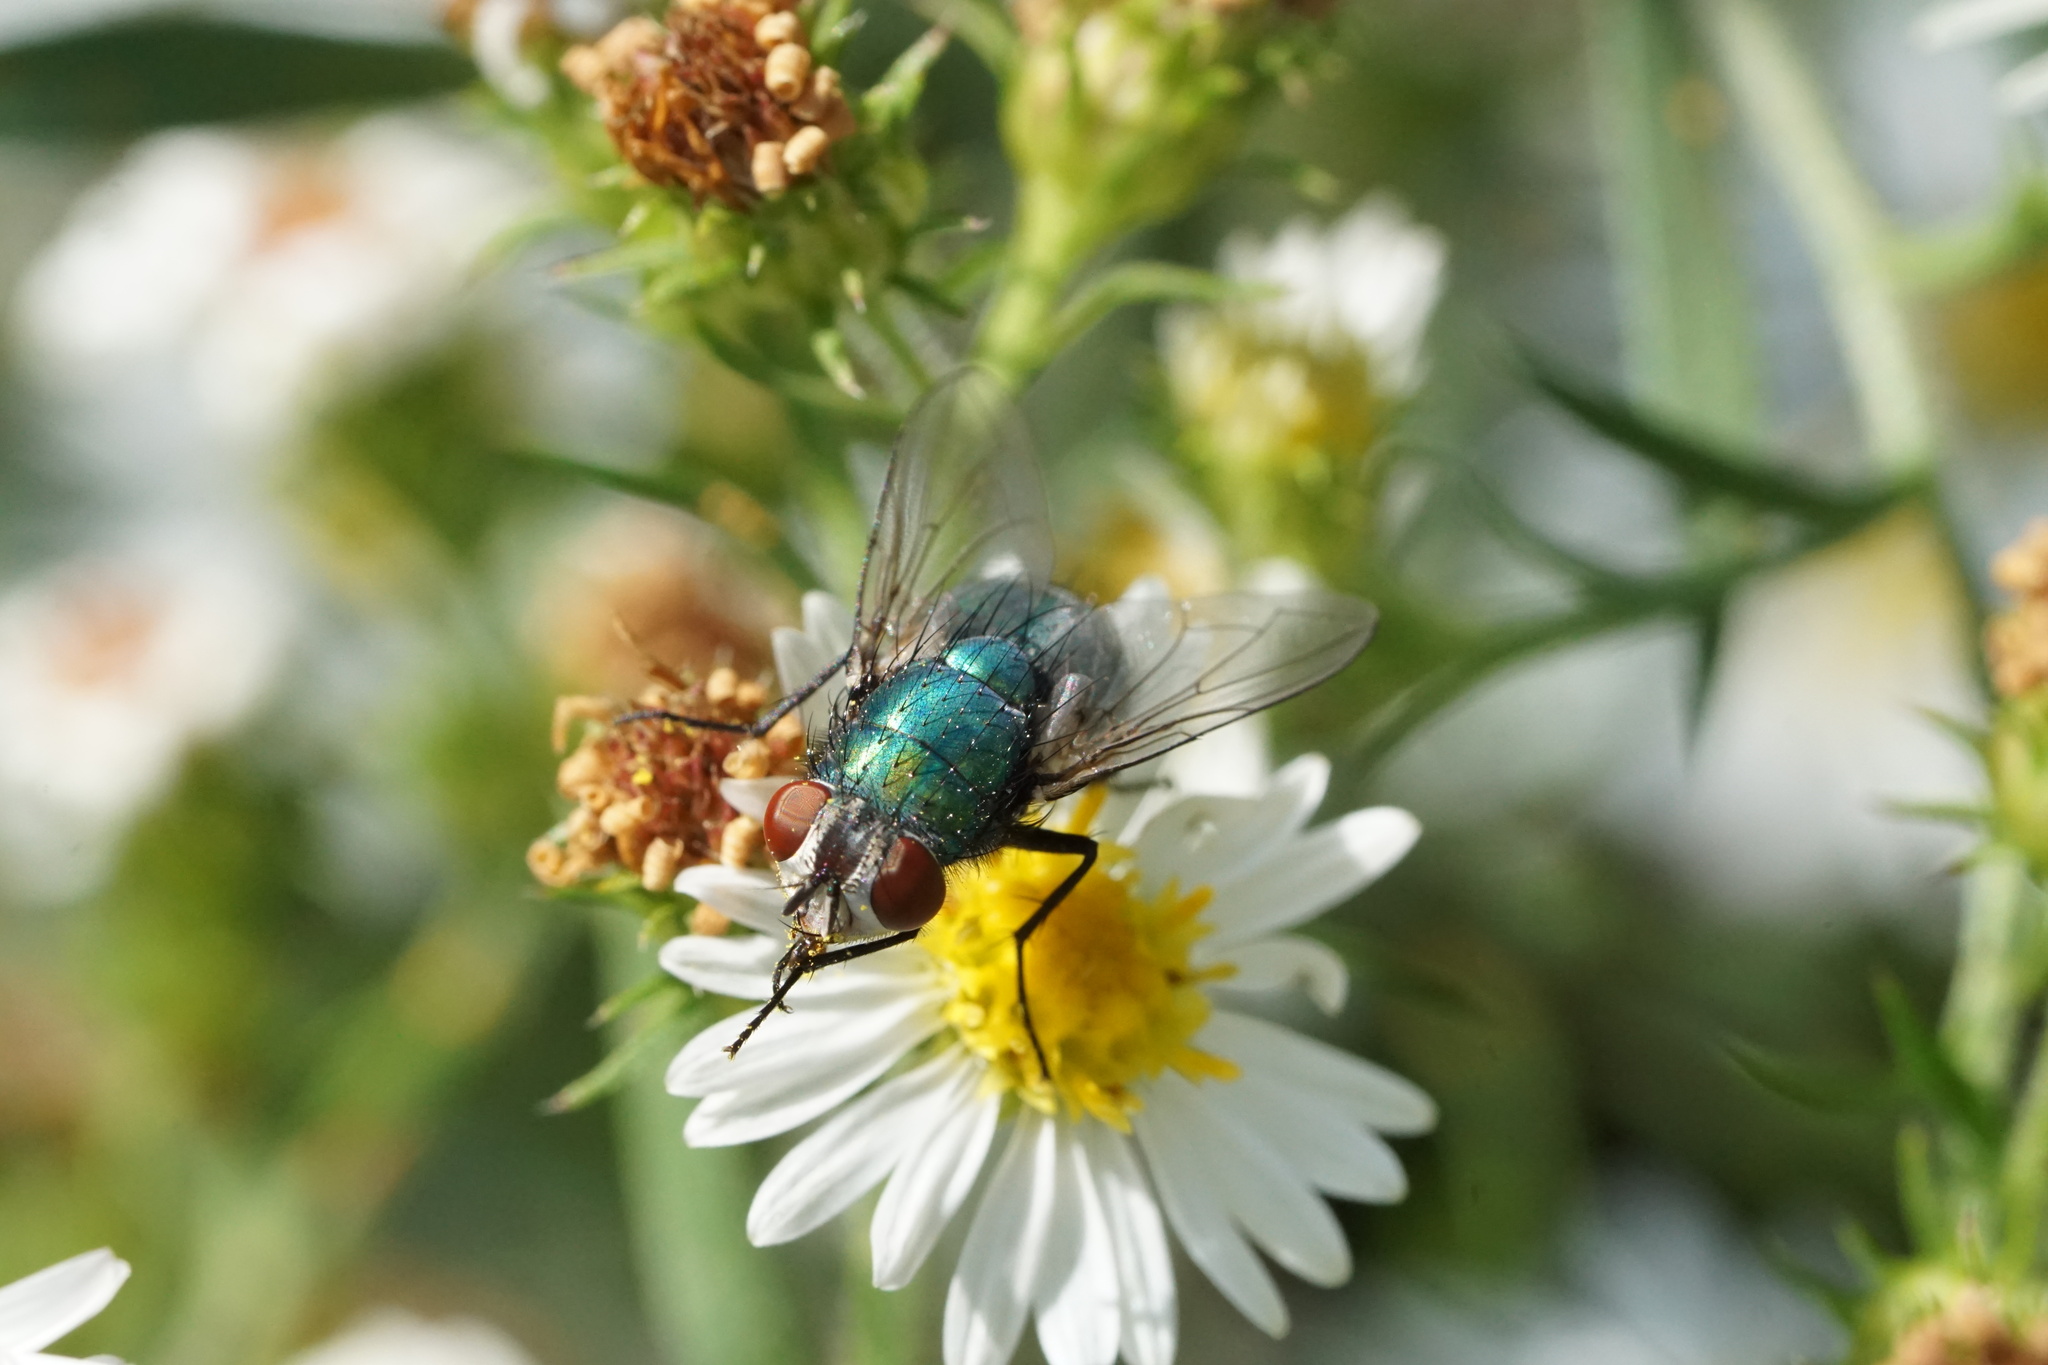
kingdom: Animalia
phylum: Arthropoda
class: Insecta
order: Diptera
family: Calliphoridae
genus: Lucilia
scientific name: Lucilia sericata
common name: Blow fly
